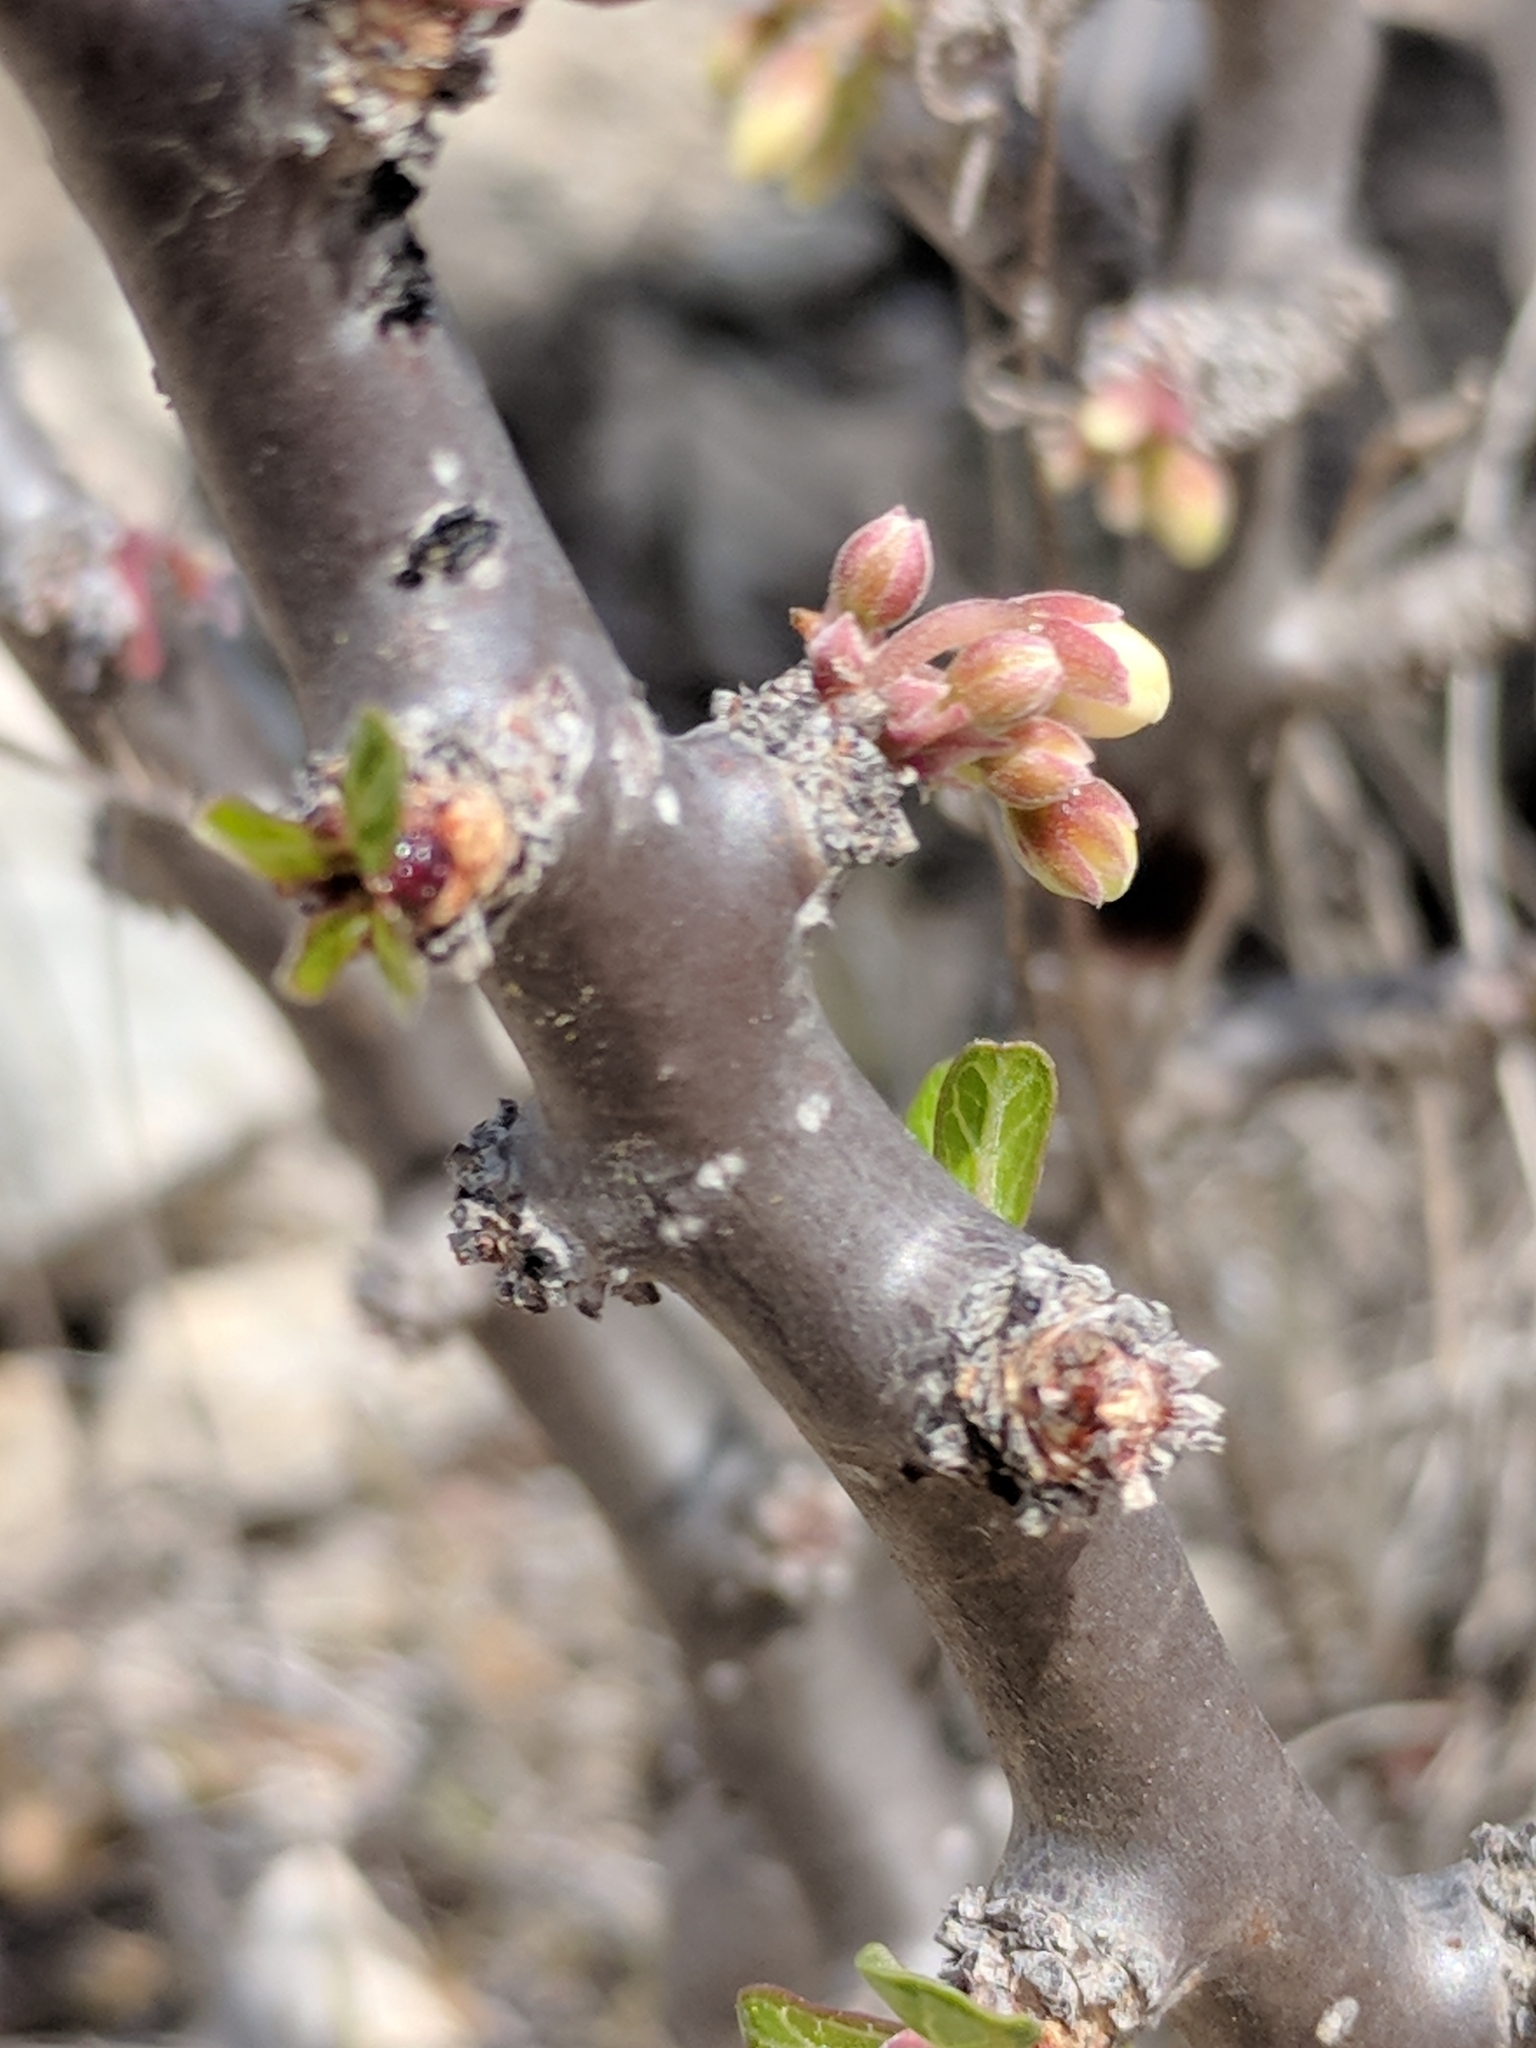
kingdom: Plantae
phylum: Tracheophyta
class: Magnoliopsida
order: Malpighiales
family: Euphorbiaceae
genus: Jatropha
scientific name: Jatropha dioica
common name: Leatherstem
